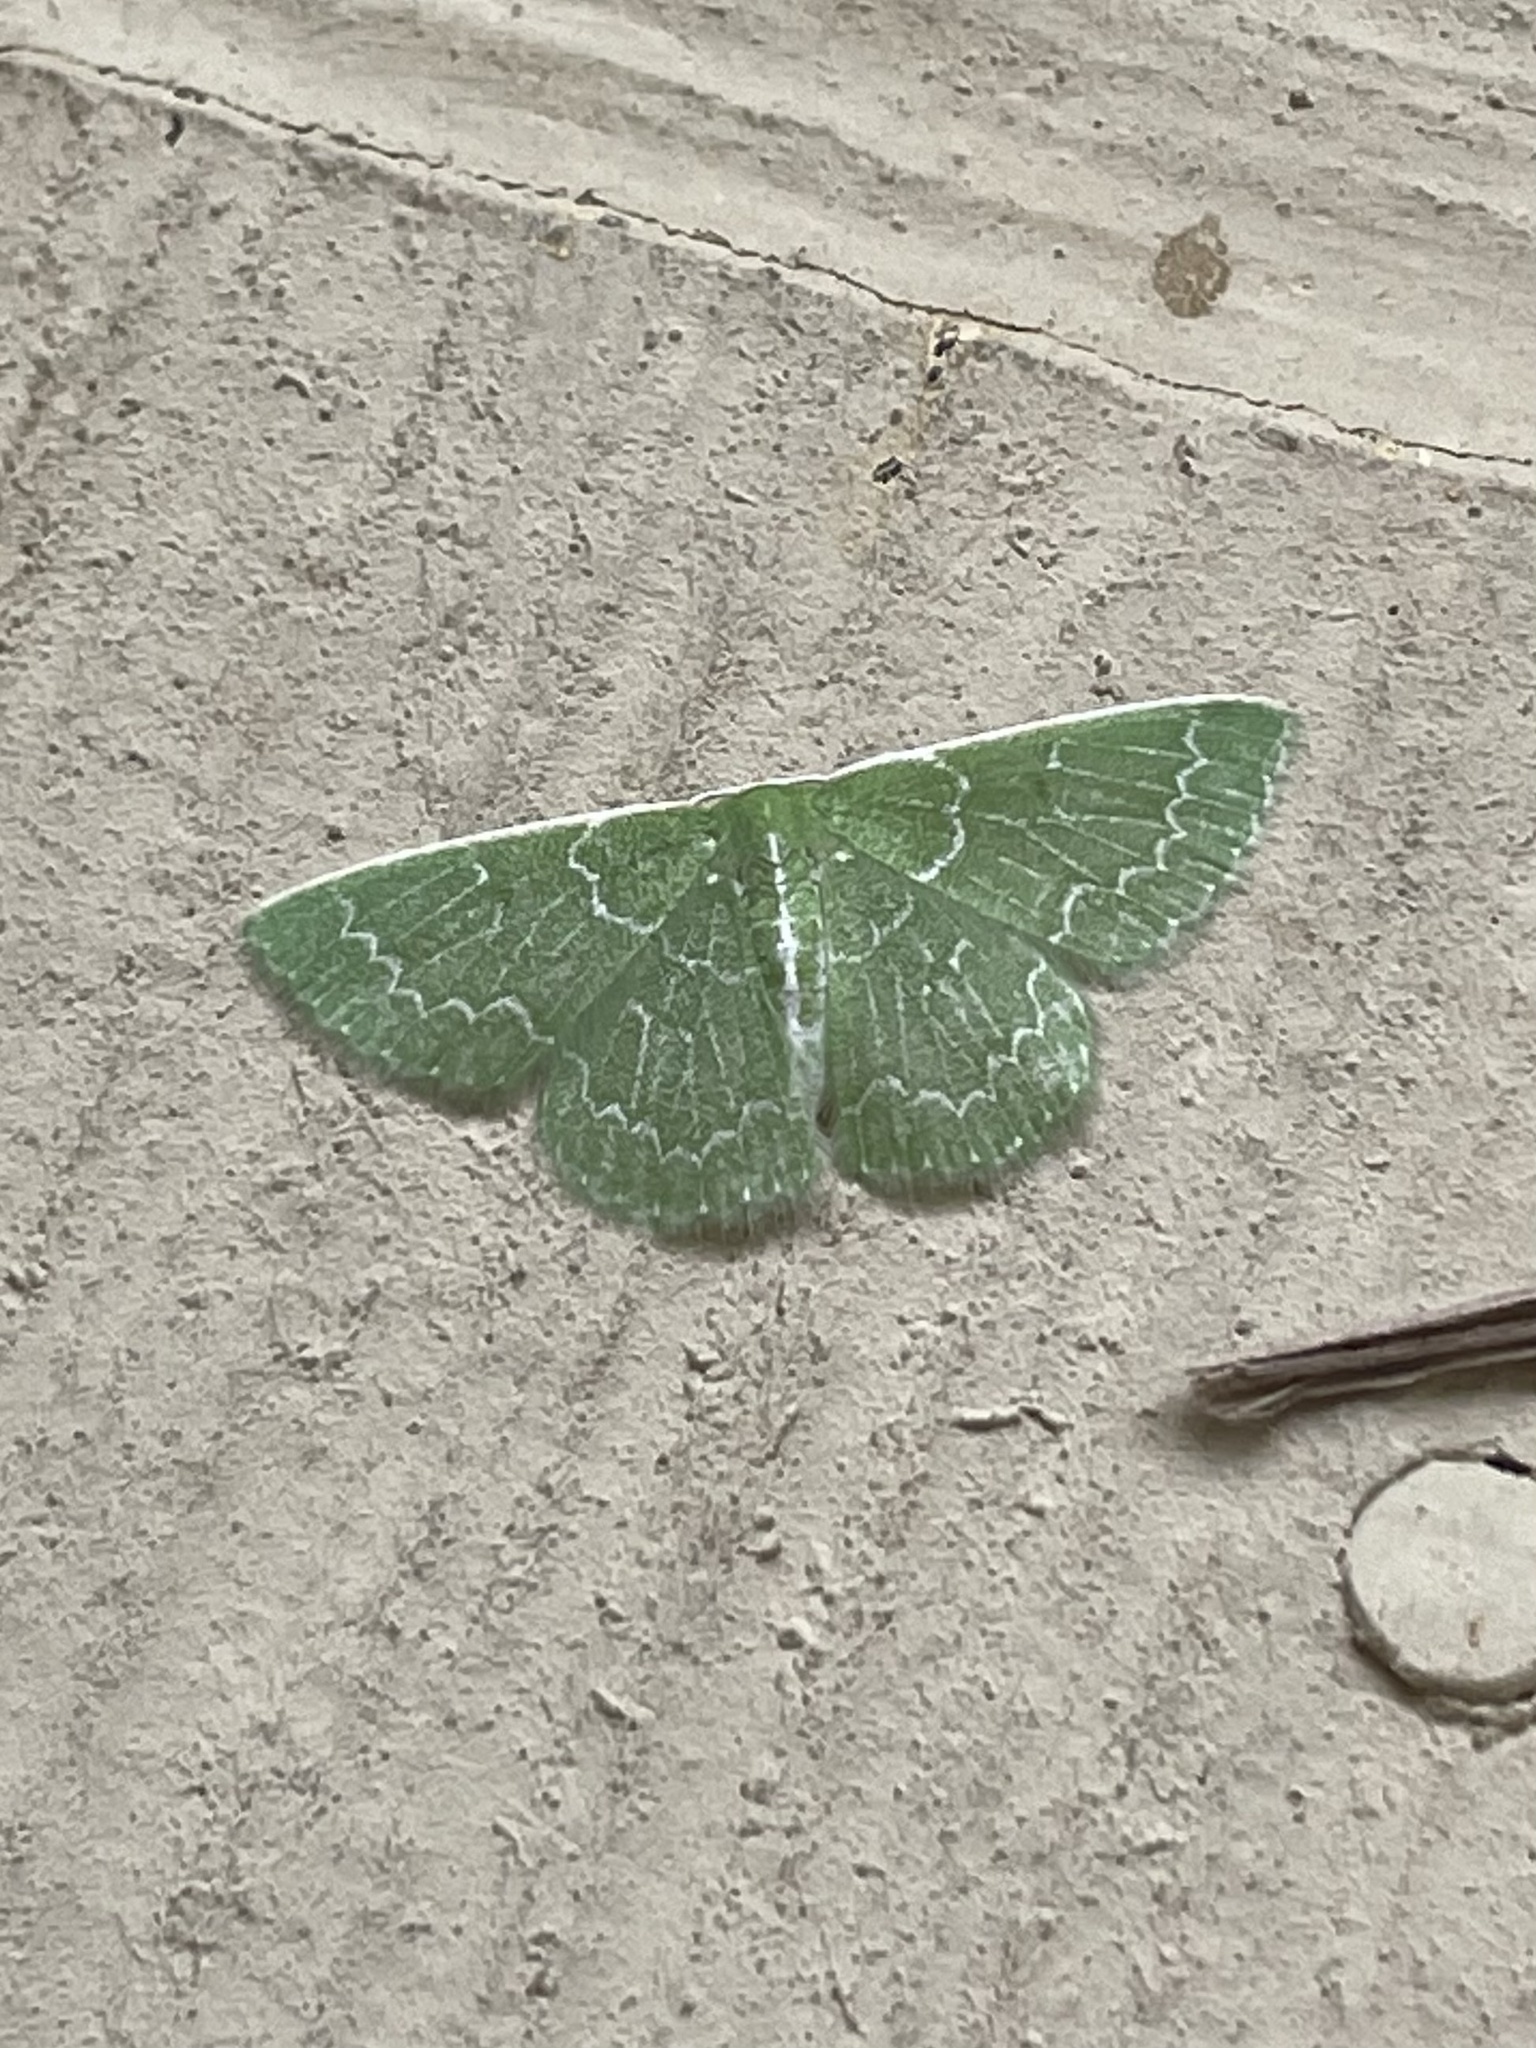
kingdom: Animalia
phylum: Arthropoda
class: Insecta
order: Lepidoptera
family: Geometridae
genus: Synchlora
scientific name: Synchlora frondaria
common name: Southern emerald
